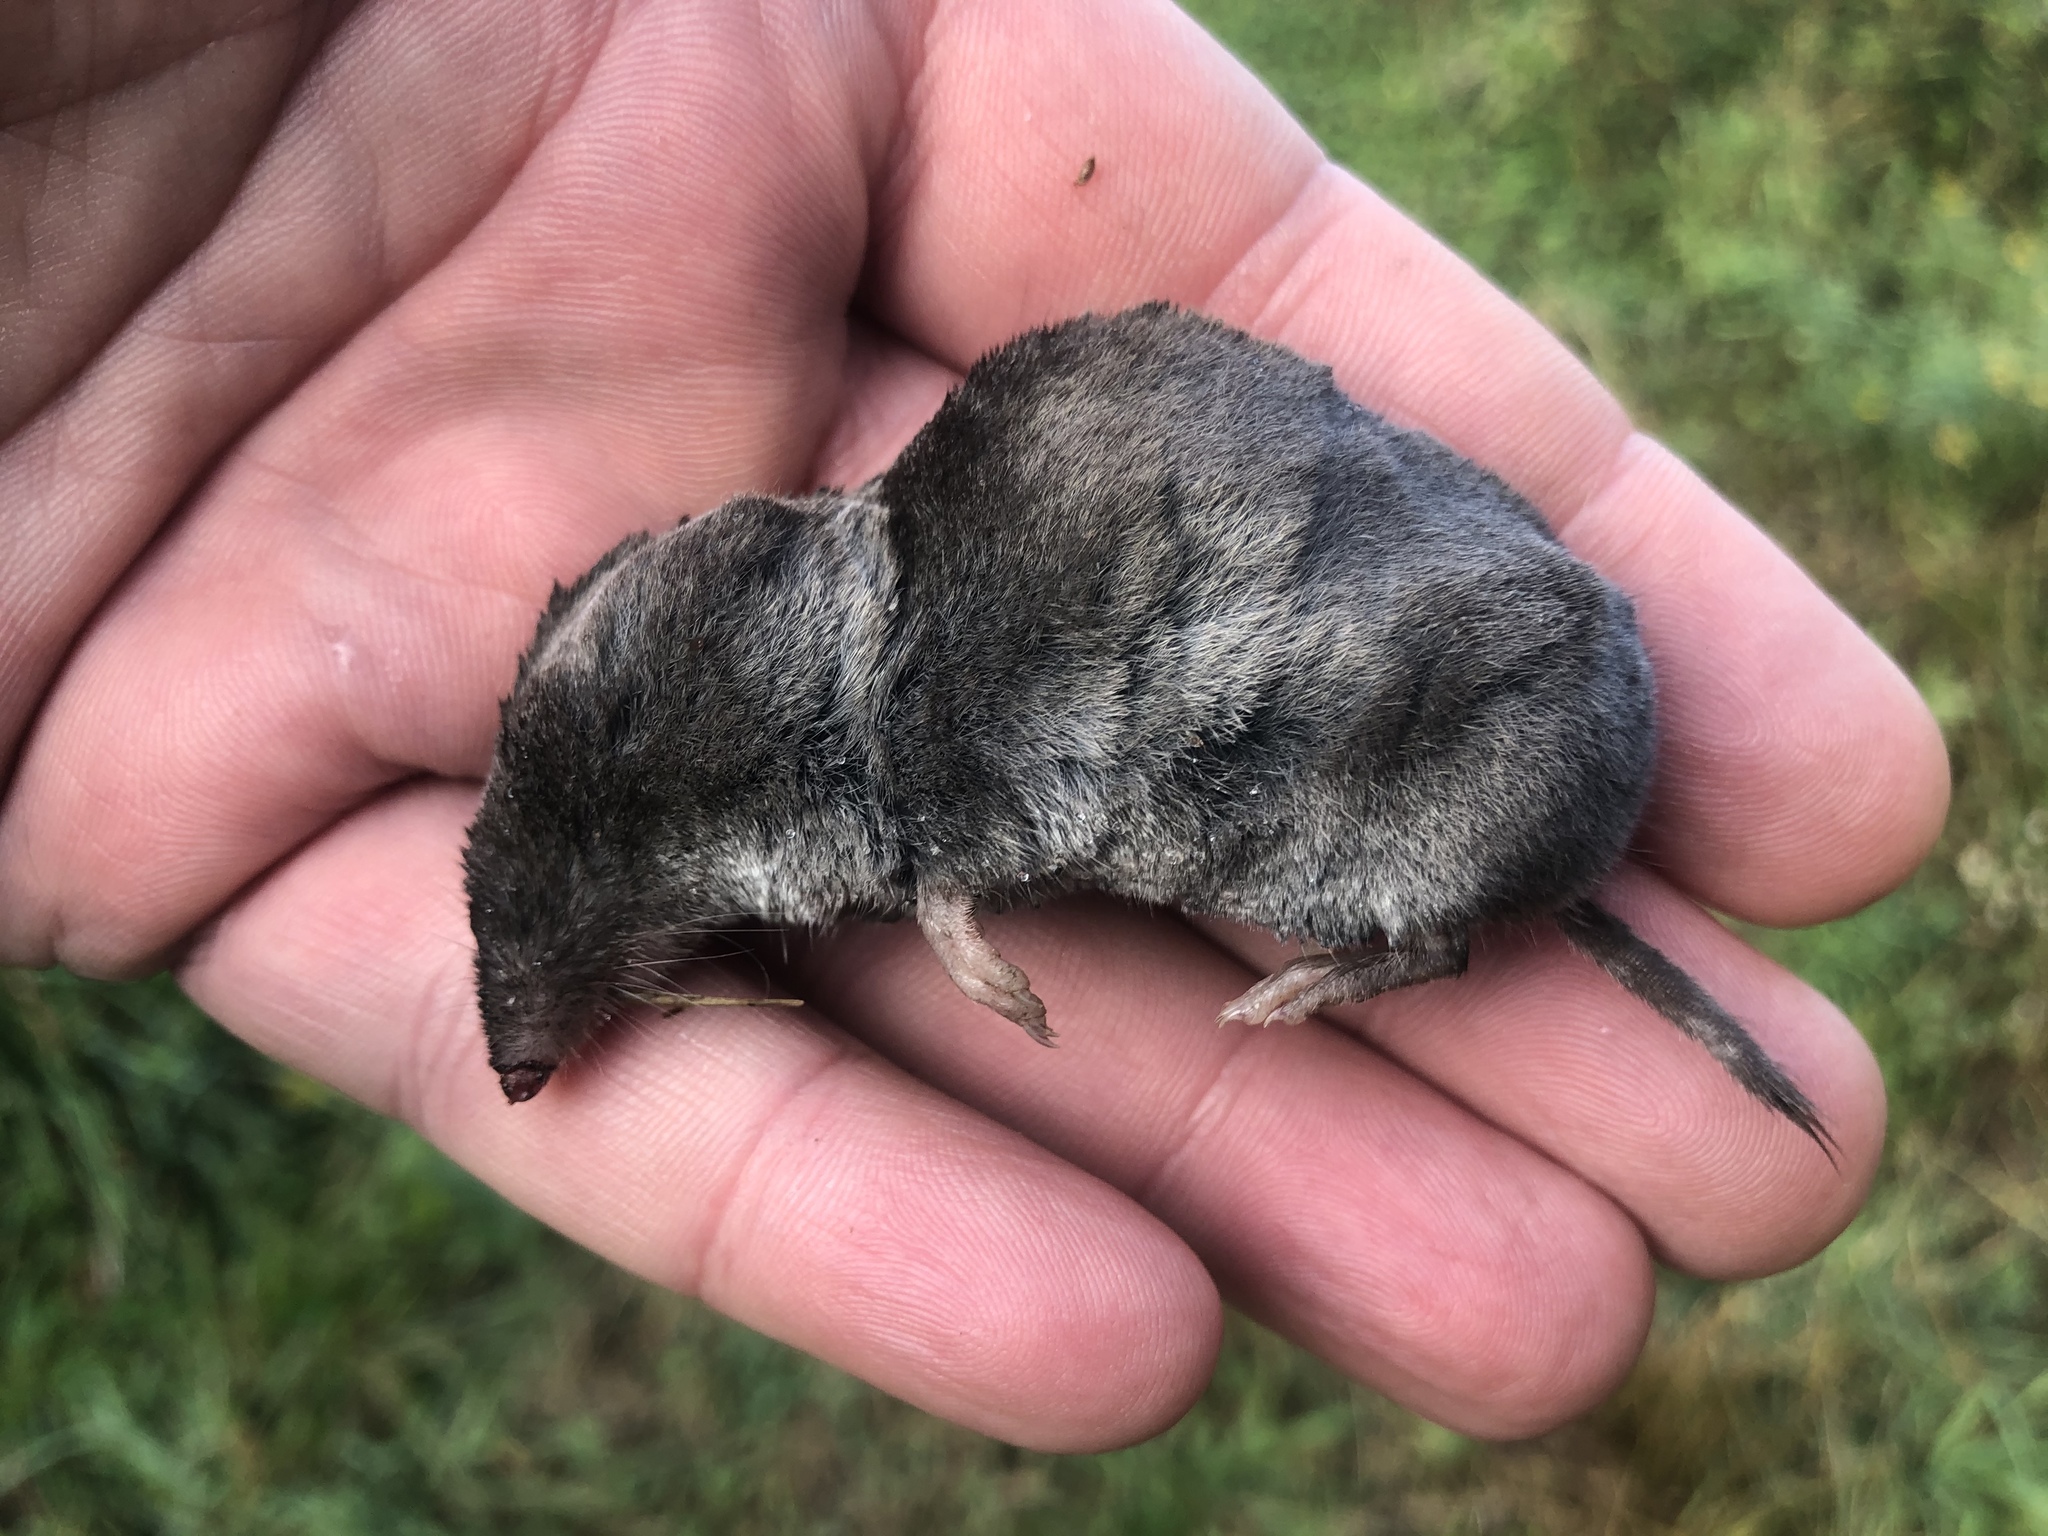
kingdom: Animalia
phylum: Chordata
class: Mammalia
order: Soricomorpha
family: Soricidae
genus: Blarina
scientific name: Blarina brevicauda
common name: Northern short-tailed shrew
